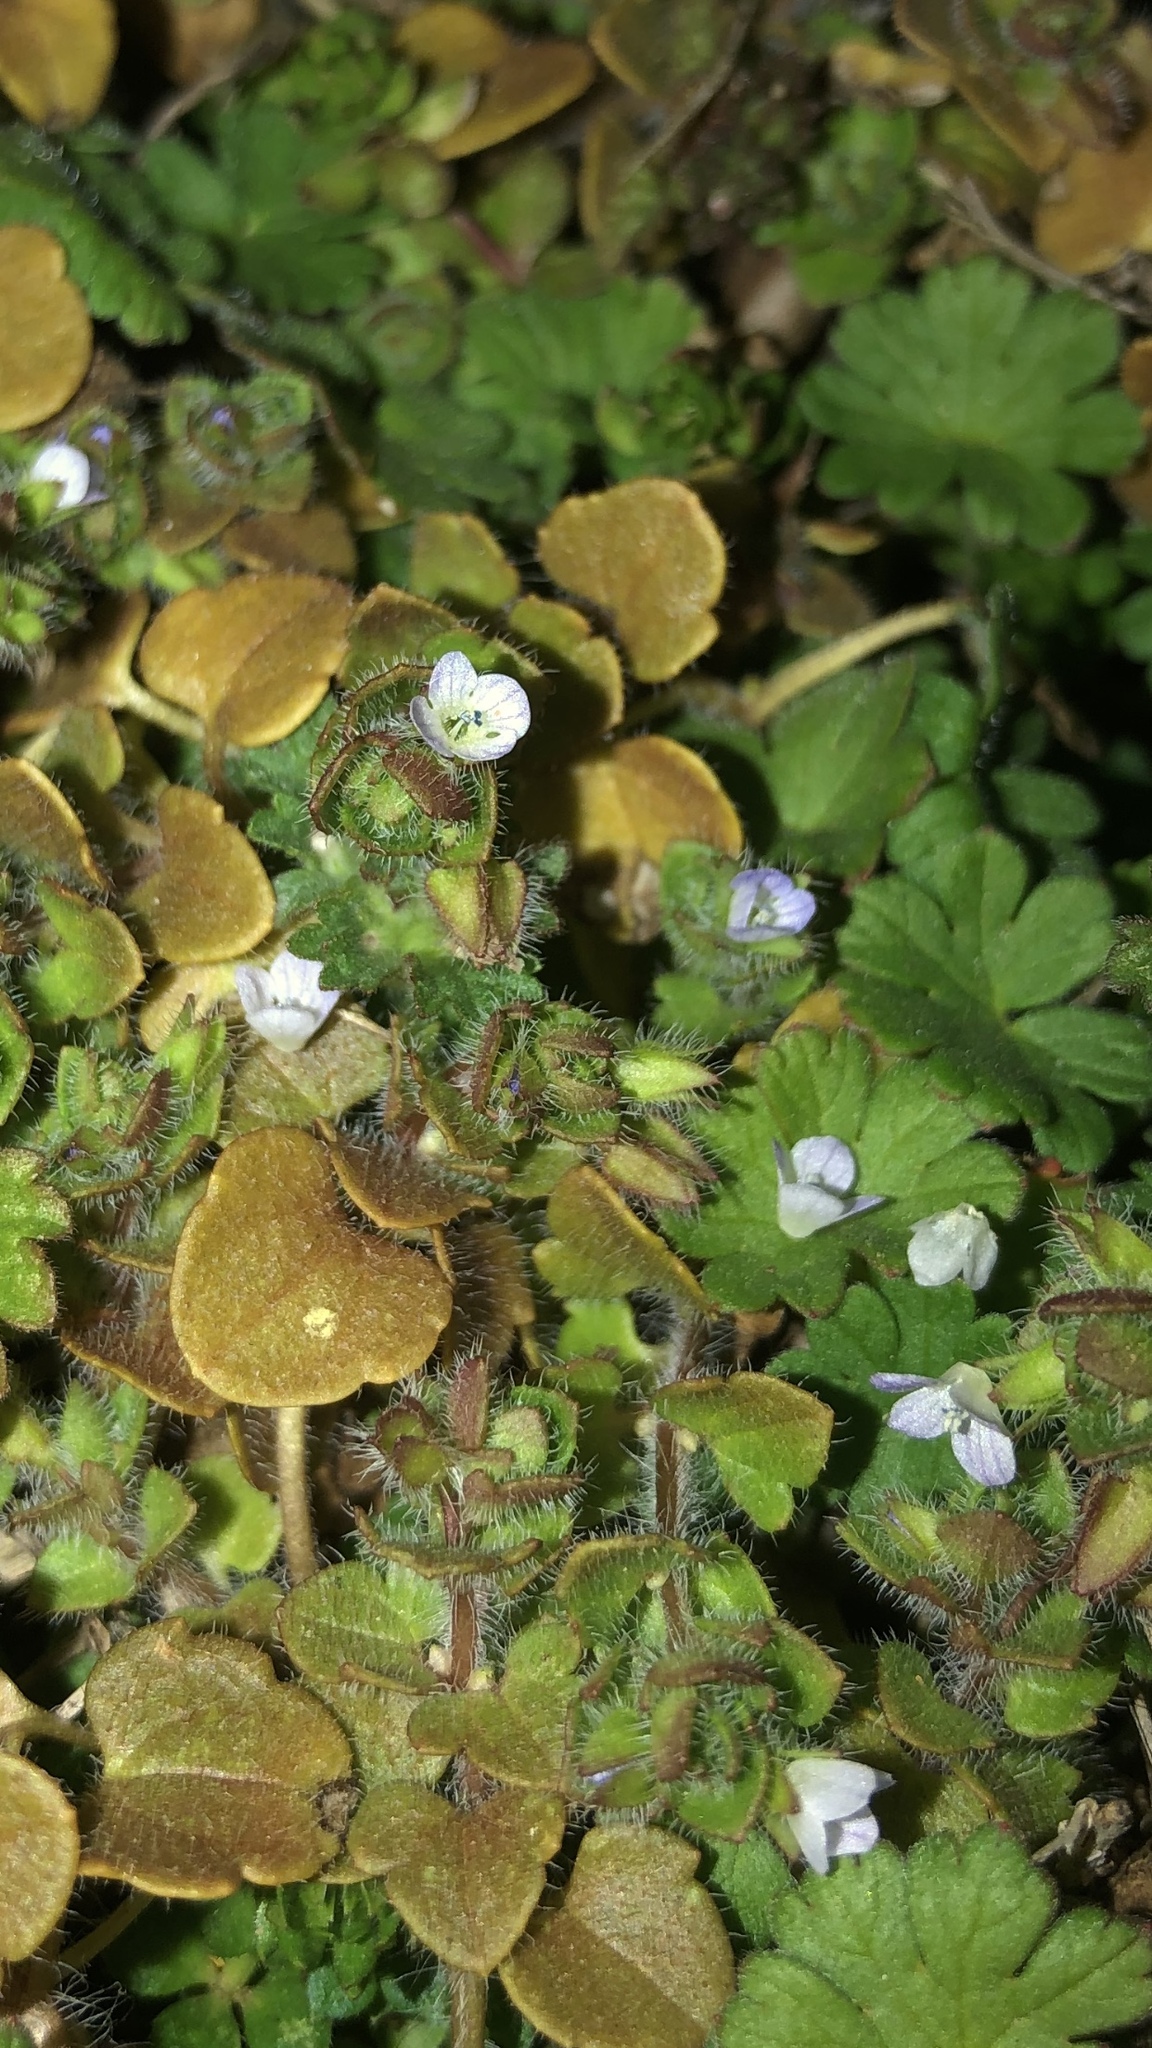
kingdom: Plantae
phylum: Tracheophyta
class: Magnoliopsida
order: Lamiales
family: Plantaginaceae
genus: Veronica
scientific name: Veronica hederifolia
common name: Ivy-leaved speedwell
